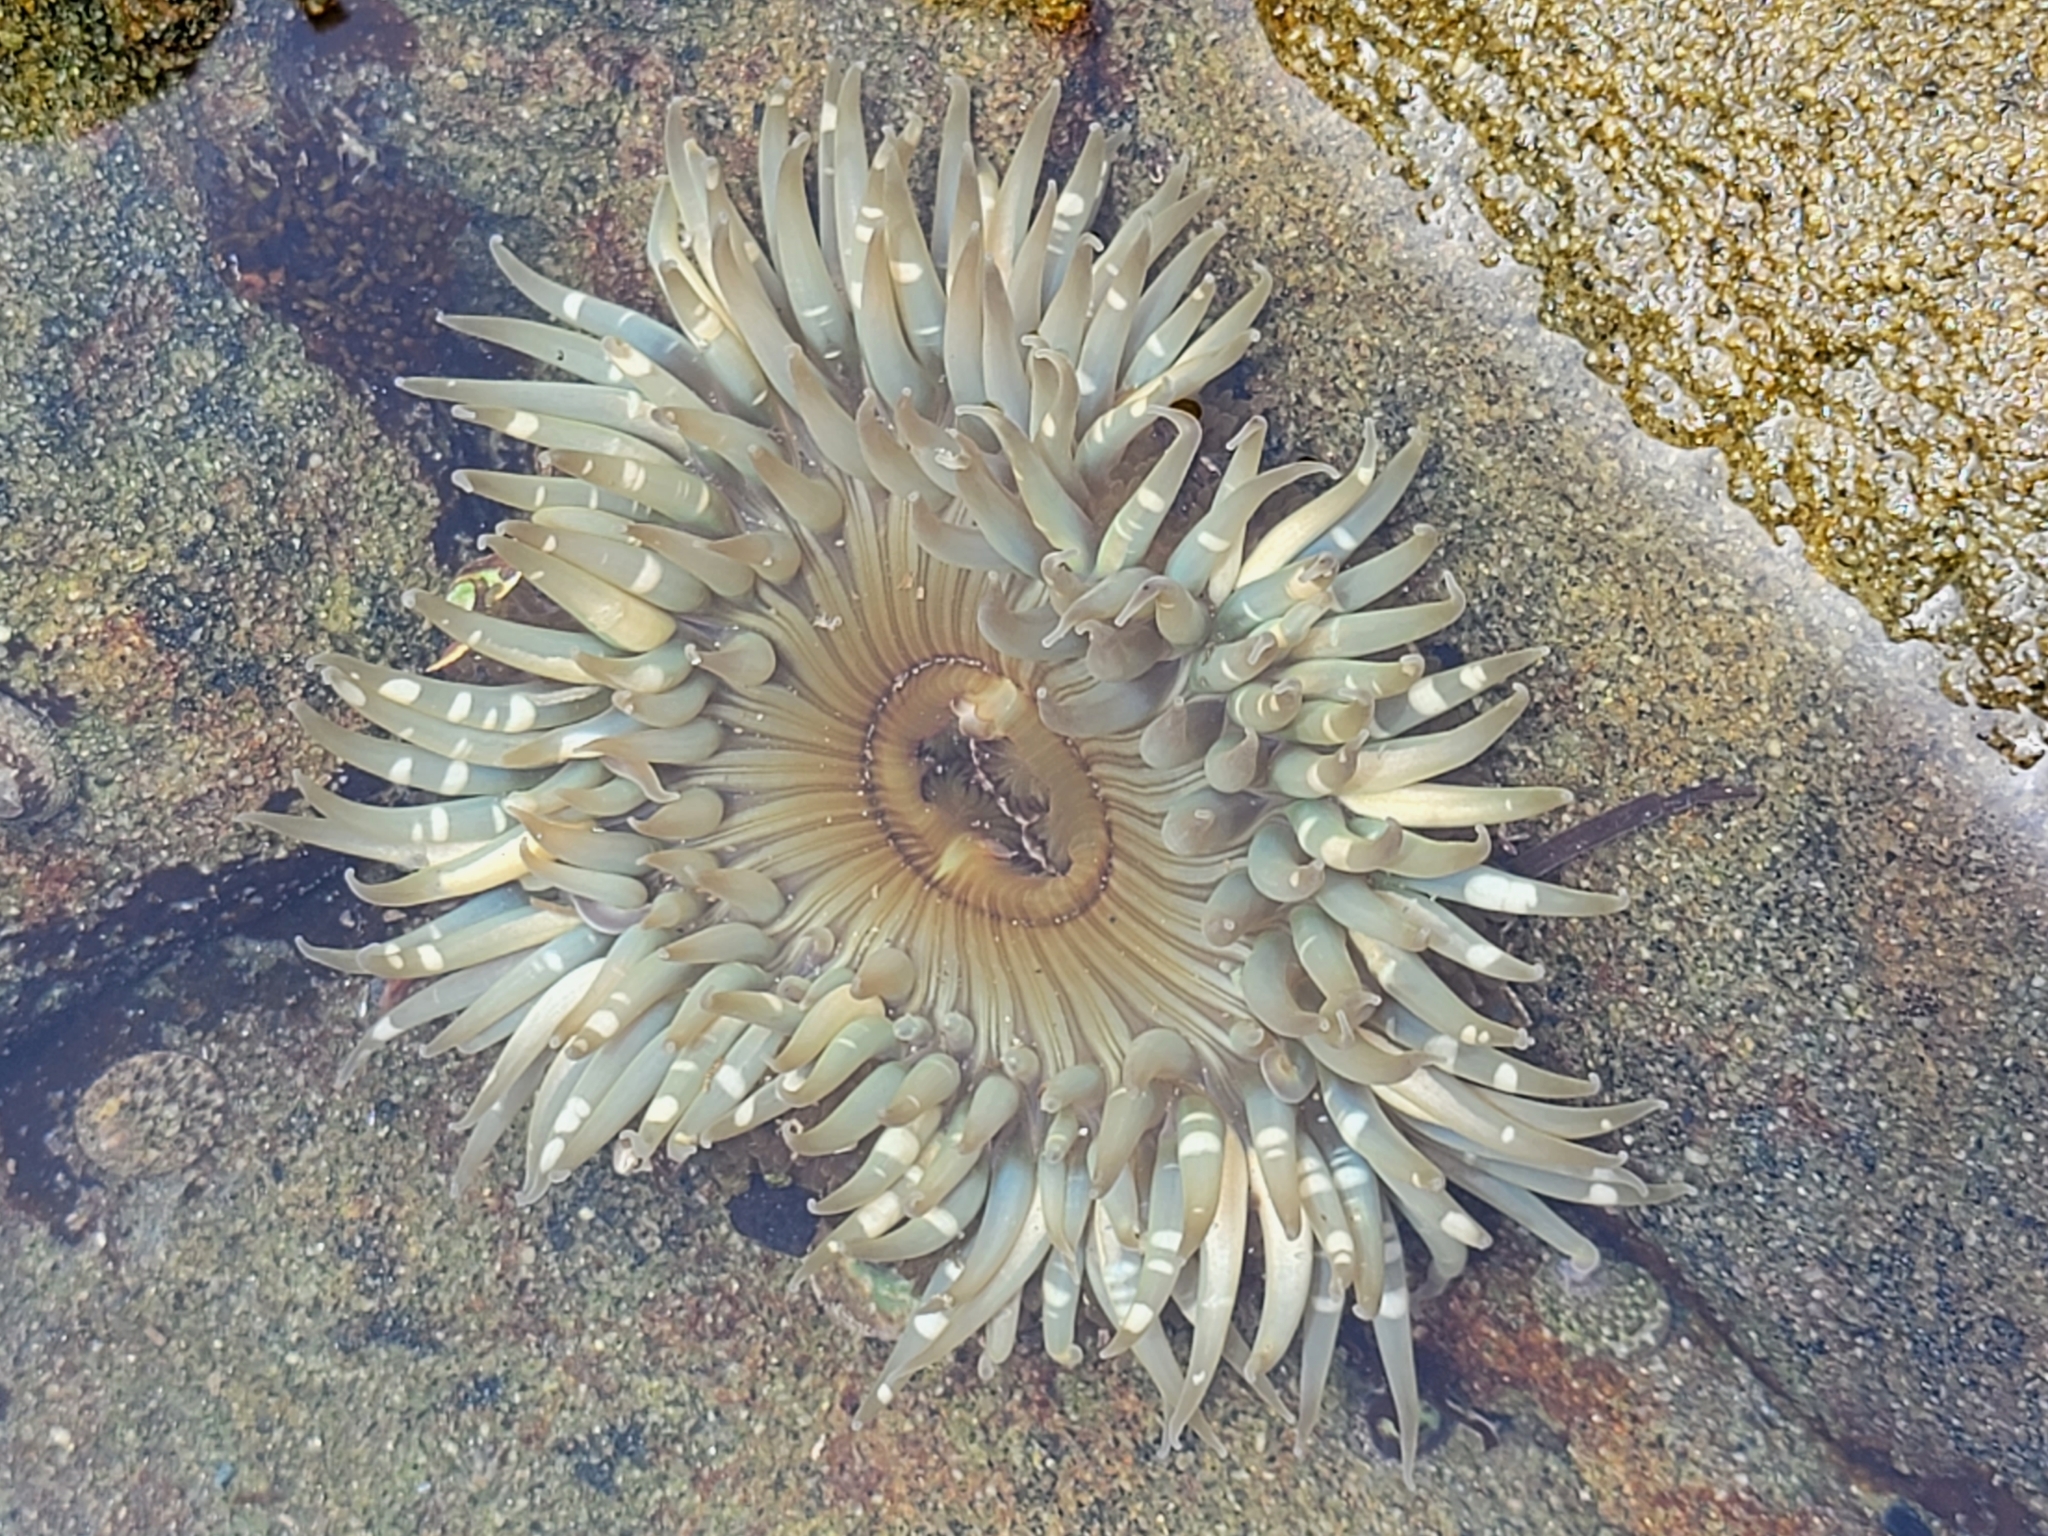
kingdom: Animalia
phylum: Cnidaria
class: Anthozoa
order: Actiniaria
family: Actiniidae
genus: Anthopleura
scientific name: Anthopleura sola
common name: Sun anemone
